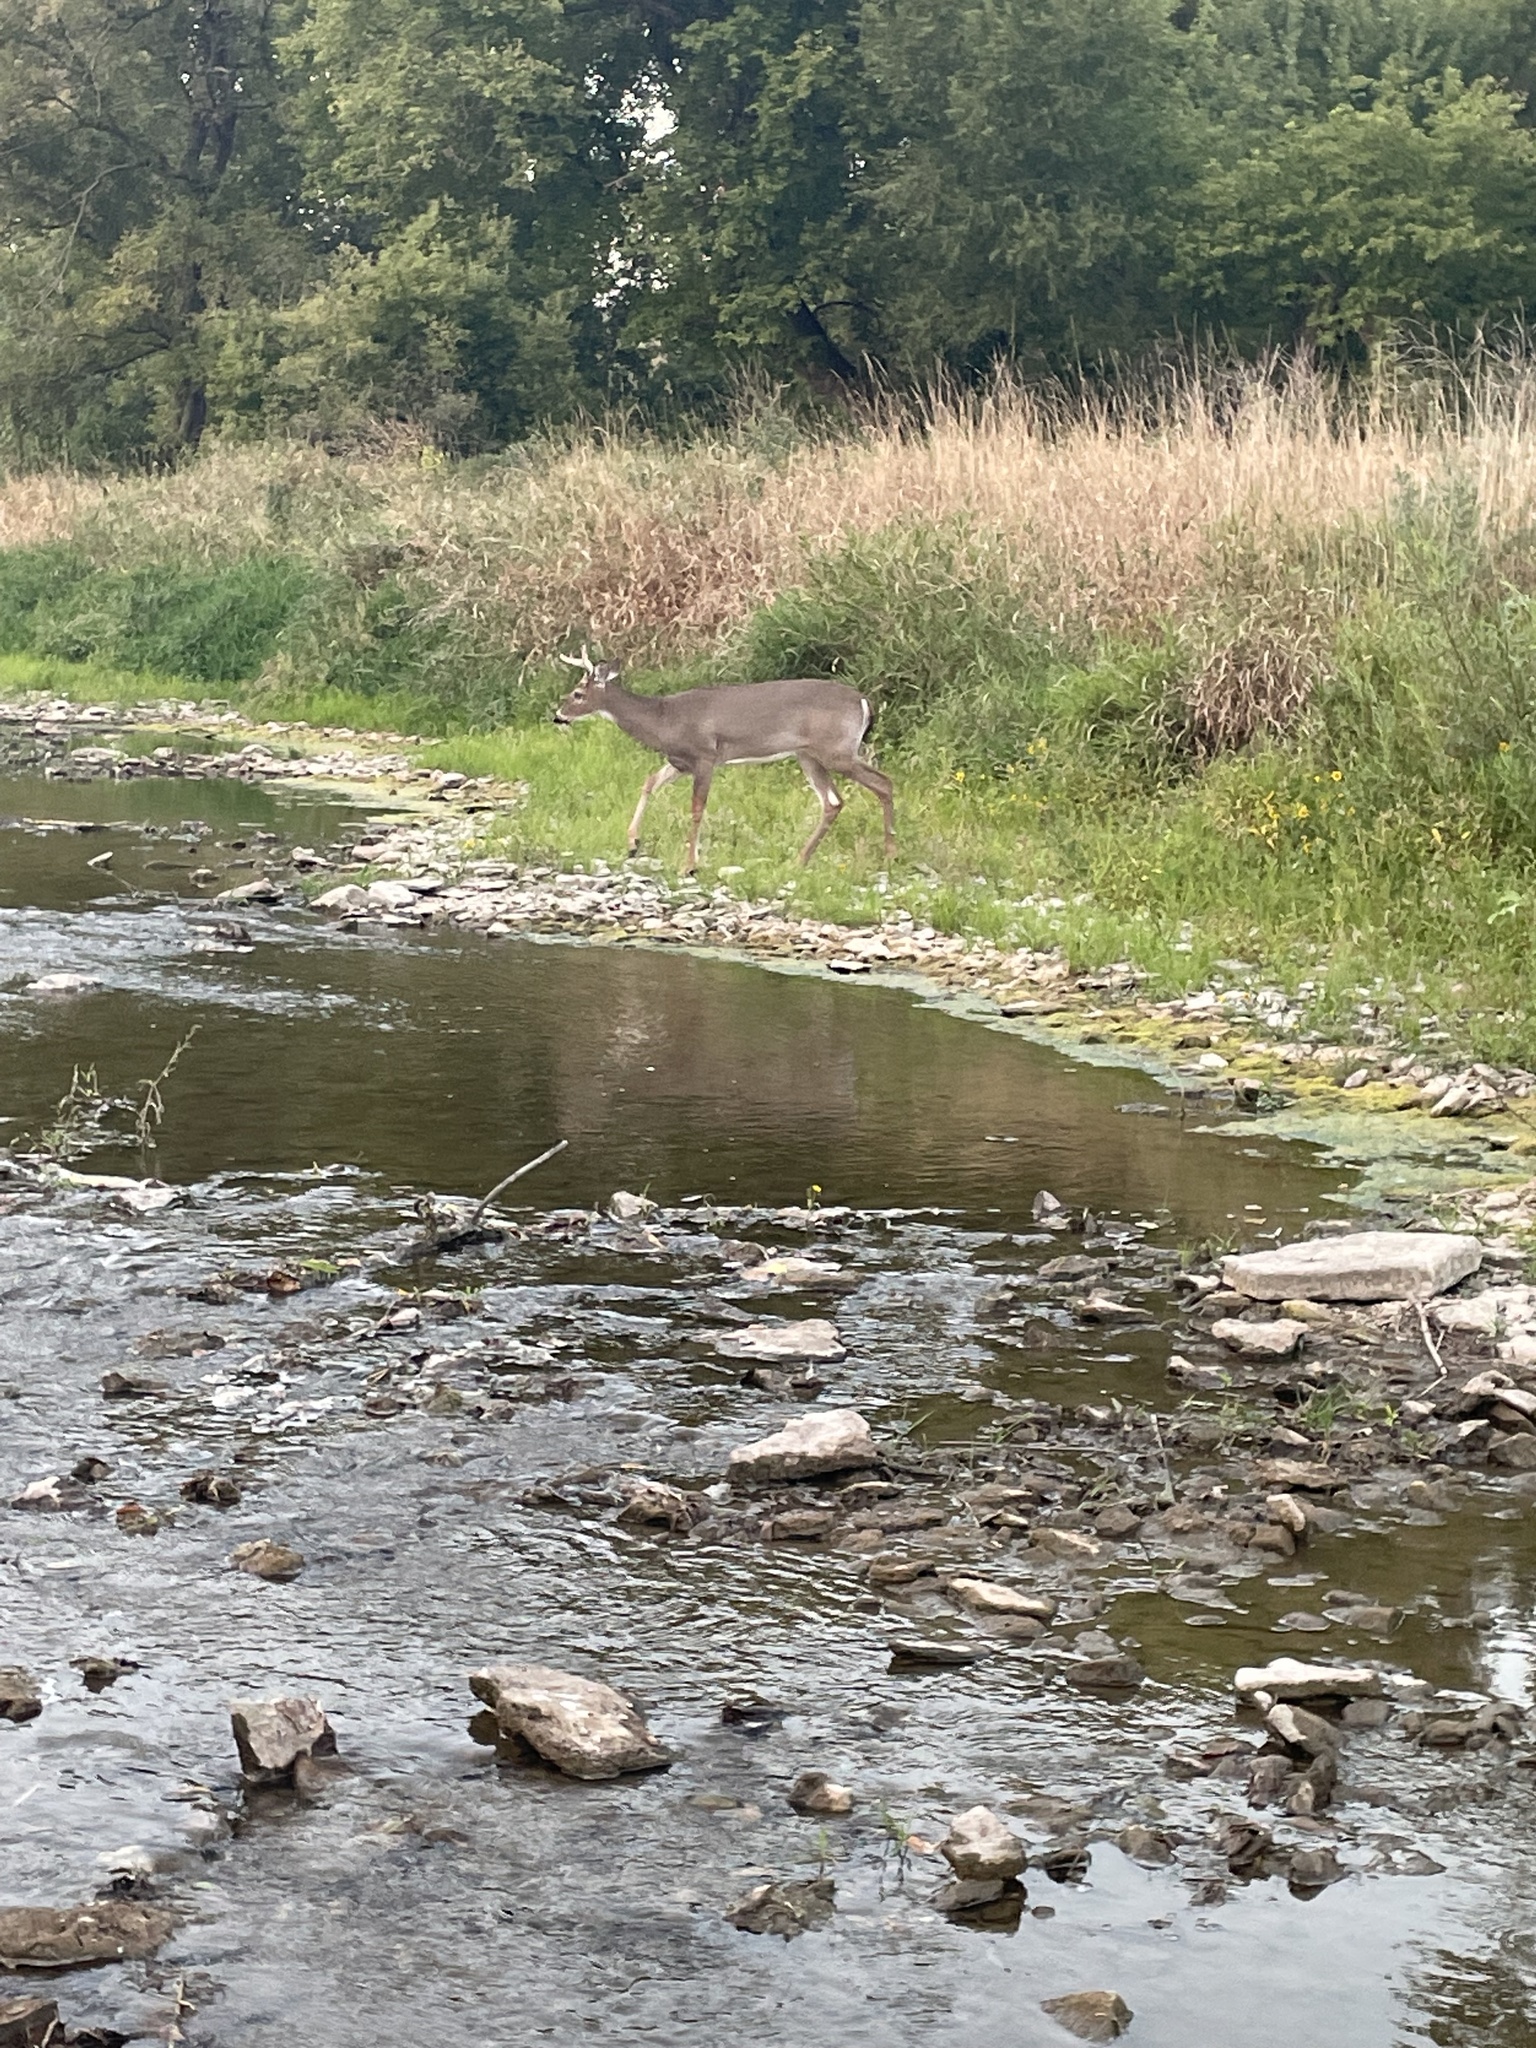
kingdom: Animalia
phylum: Chordata
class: Mammalia
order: Artiodactyla
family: Cervidae
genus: Odocoileus
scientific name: Odocoileus virginianus
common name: White-tailed deer
